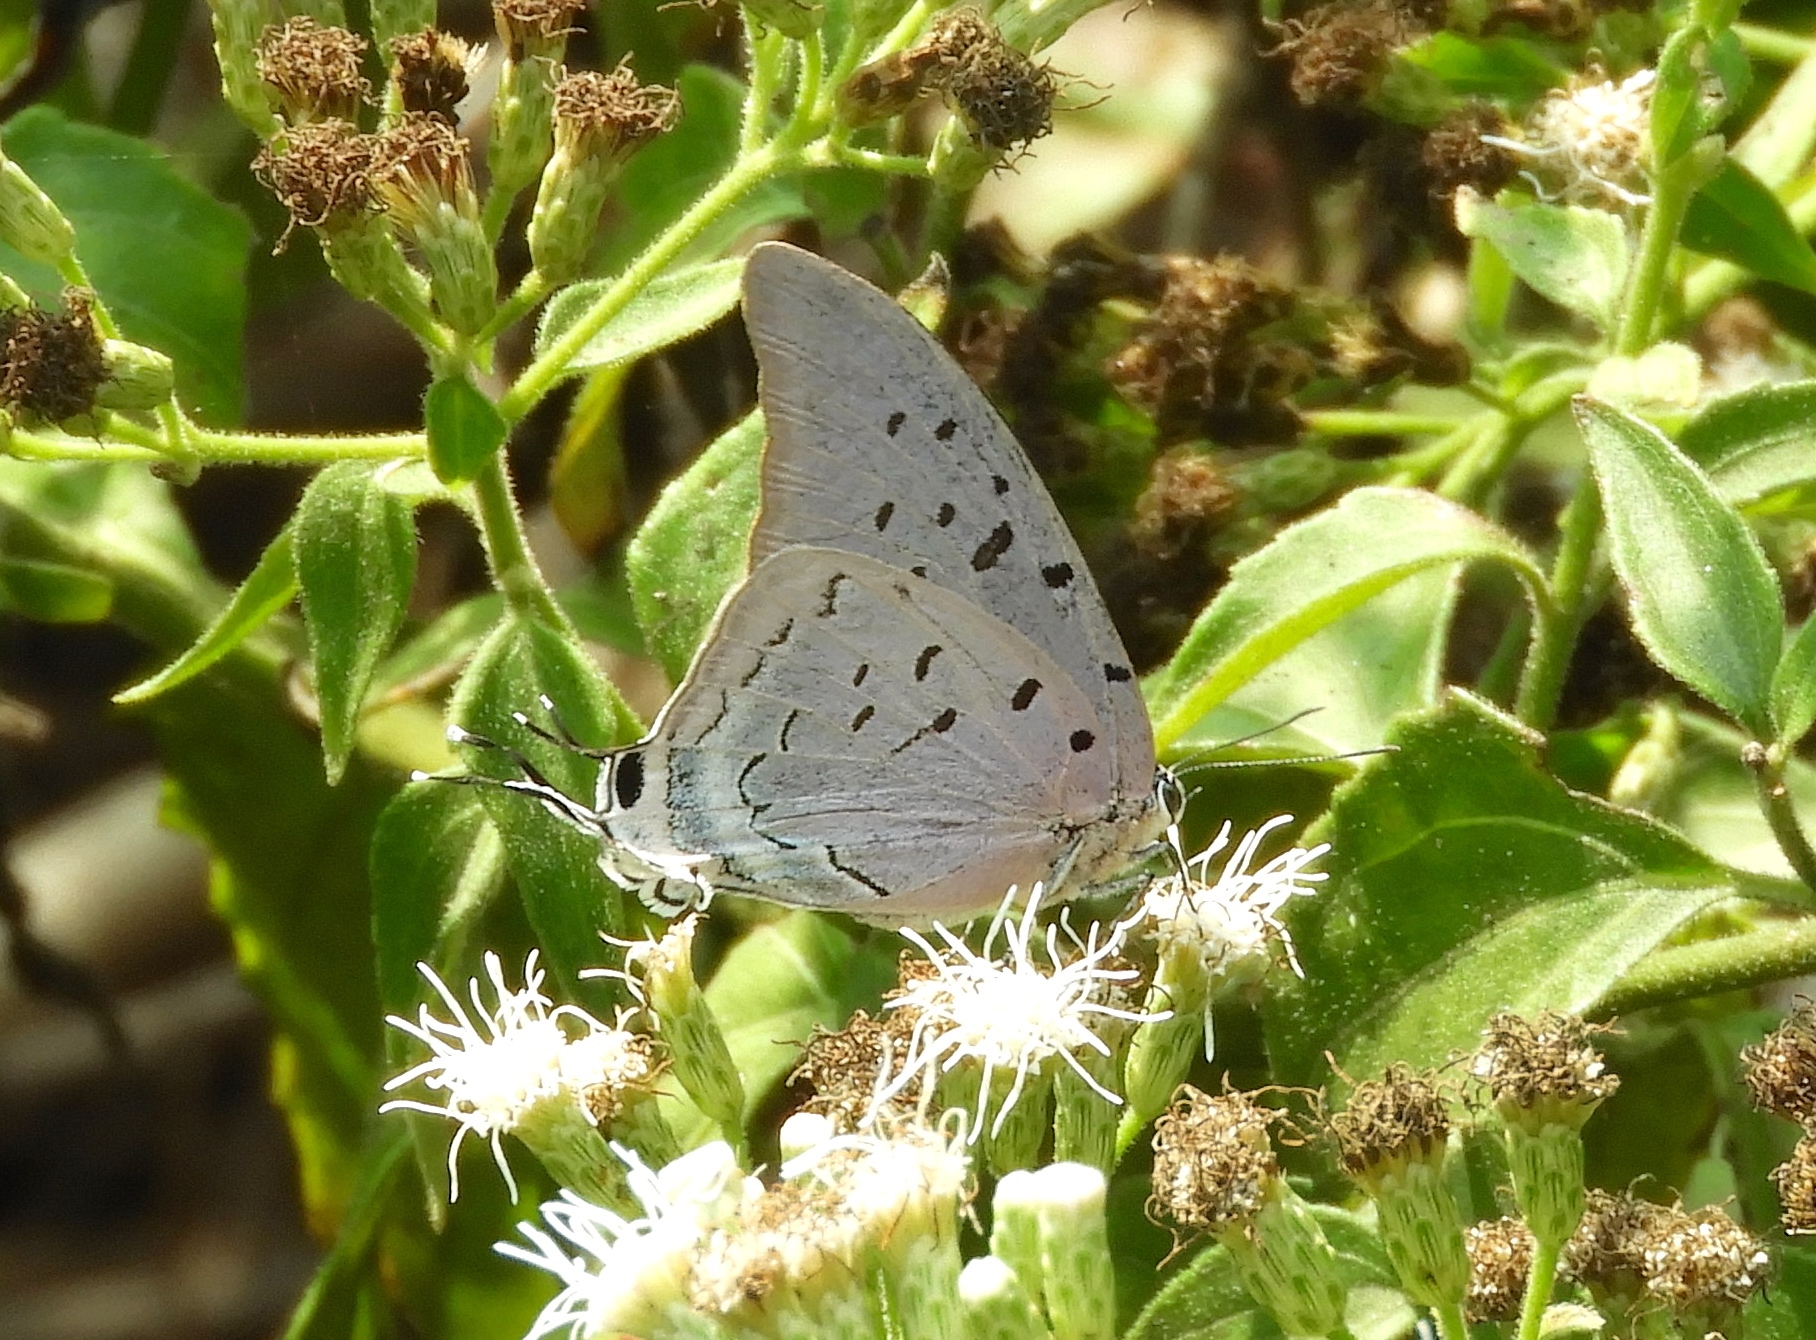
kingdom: Animalia
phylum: Arthropoda
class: Insecta
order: Lepidoptera
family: Lycaenidae
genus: Pseudolycaena
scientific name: Pseudolycaena damo
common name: Sky-blue hairstreak
